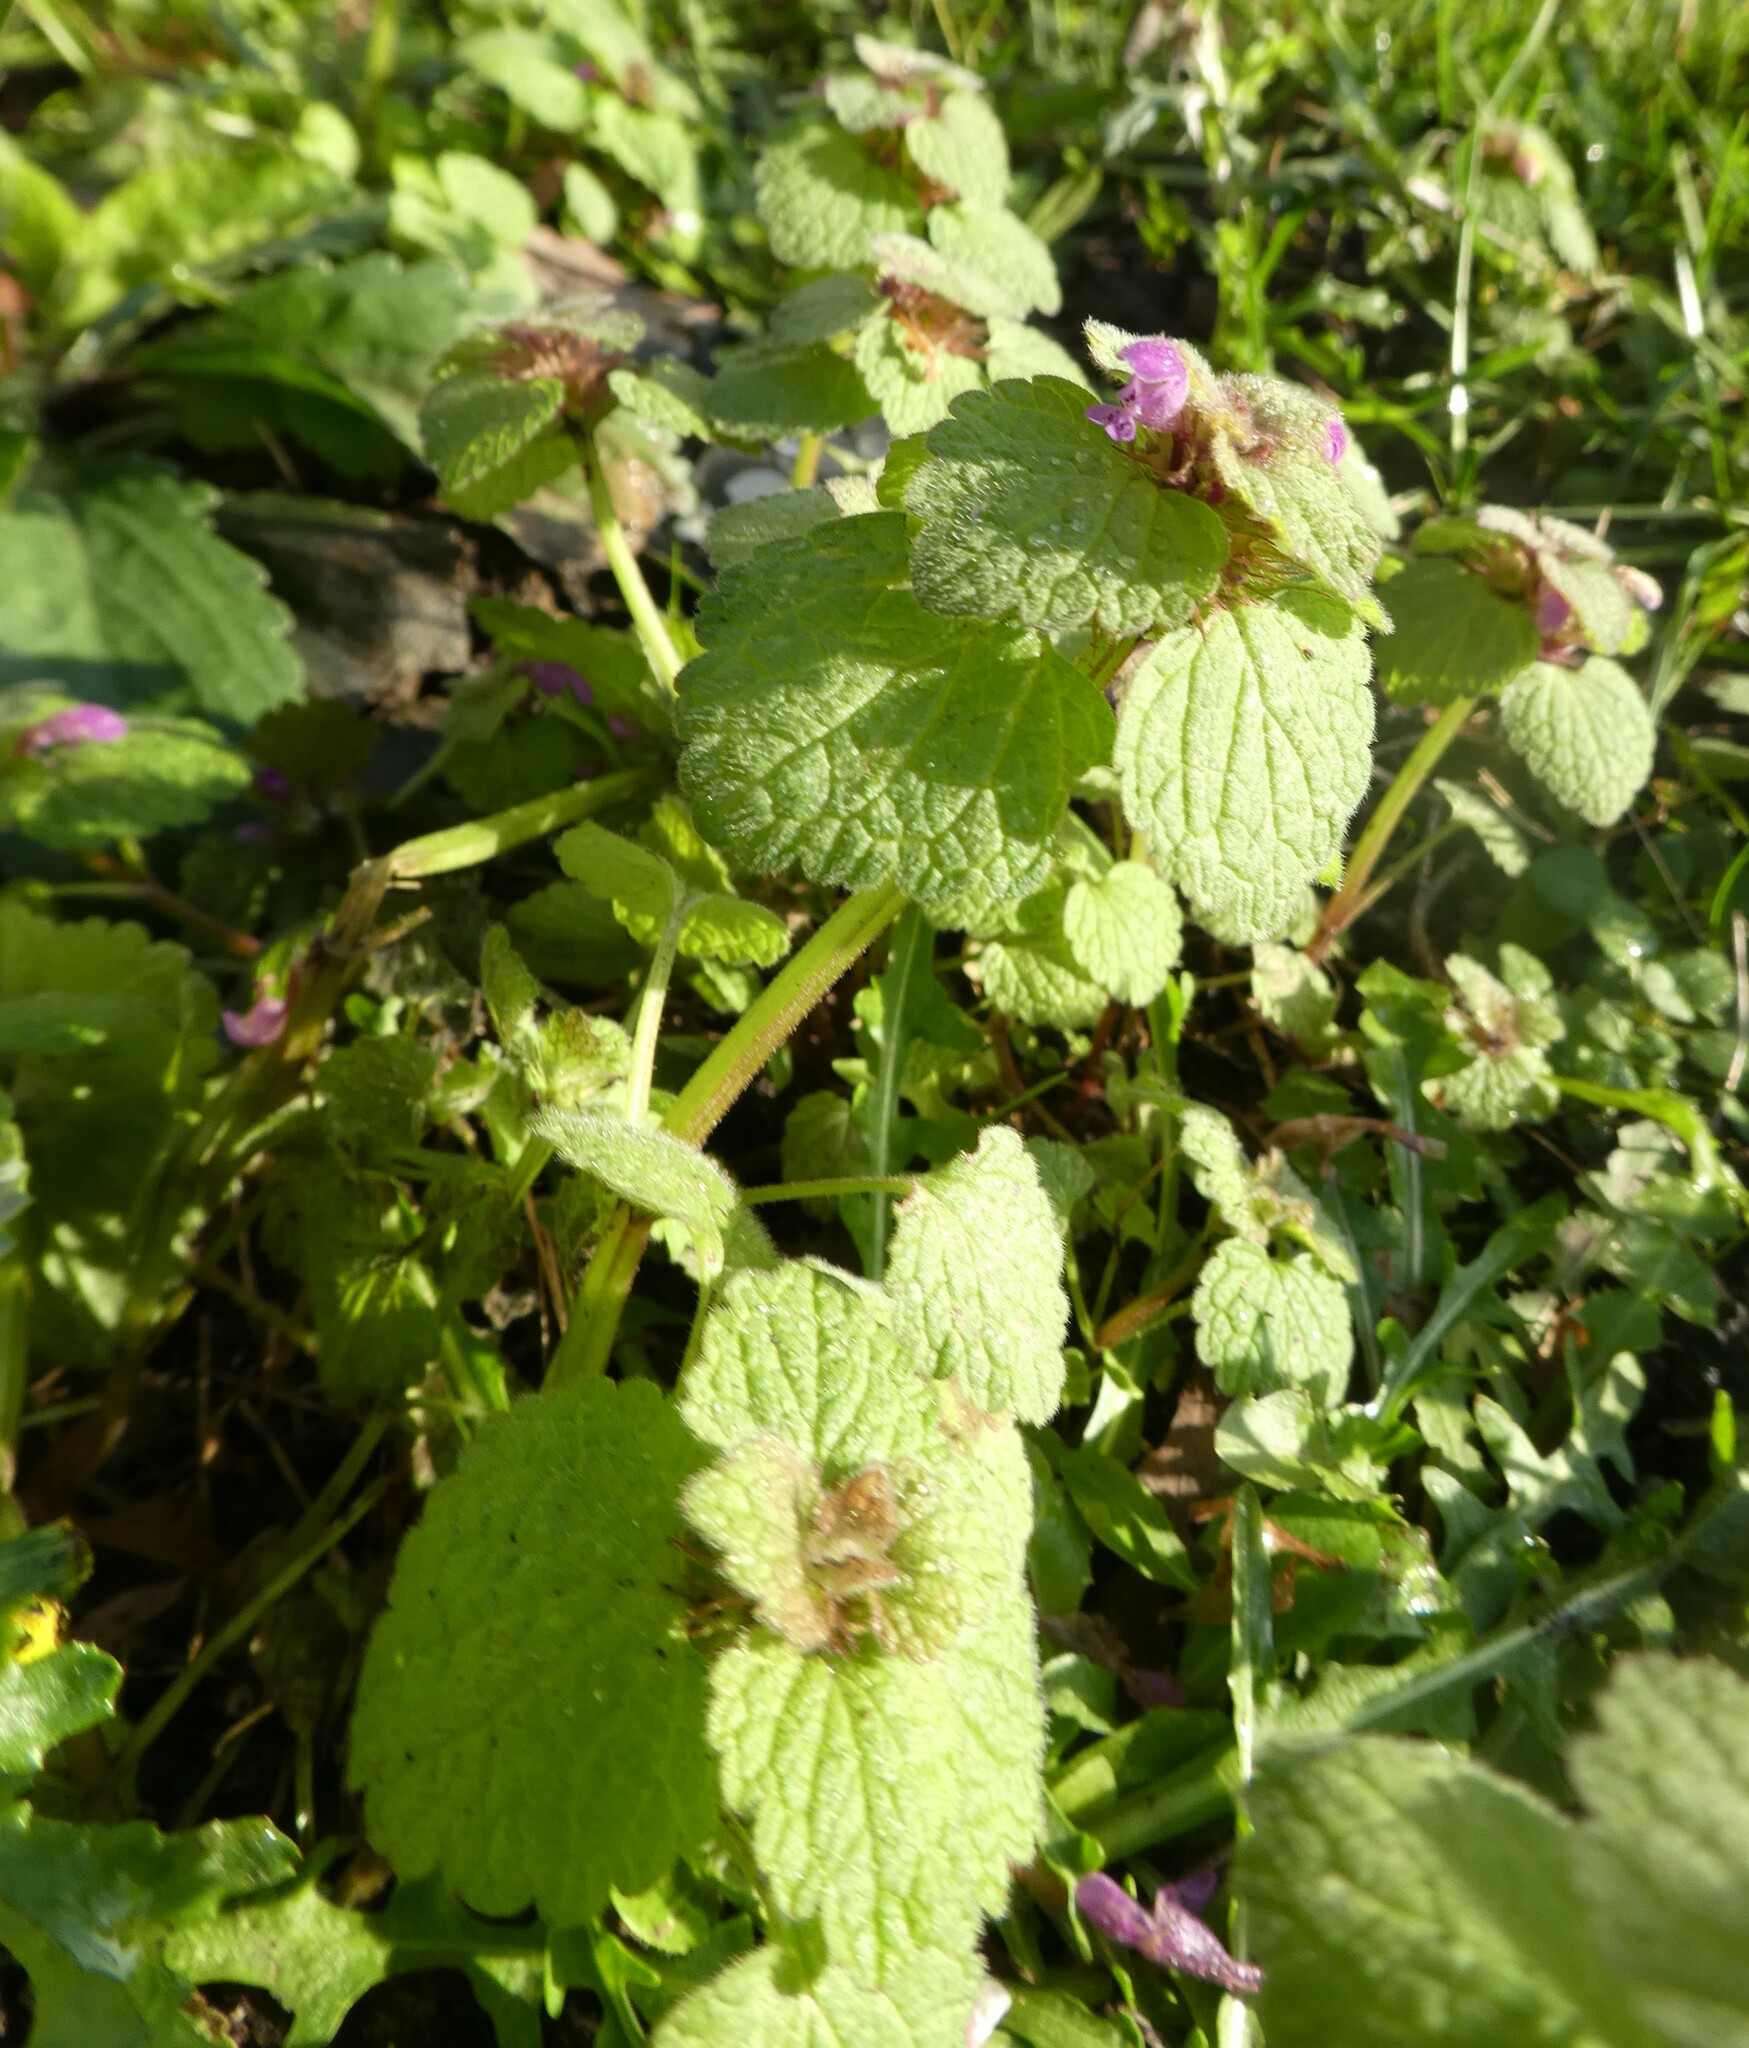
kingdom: Plantae
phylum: Tracheophyta
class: Magnoliopsida
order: Lamiales
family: Lamiaceae
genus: Lamium
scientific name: Lamium purpureum
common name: Red dead-nettle
